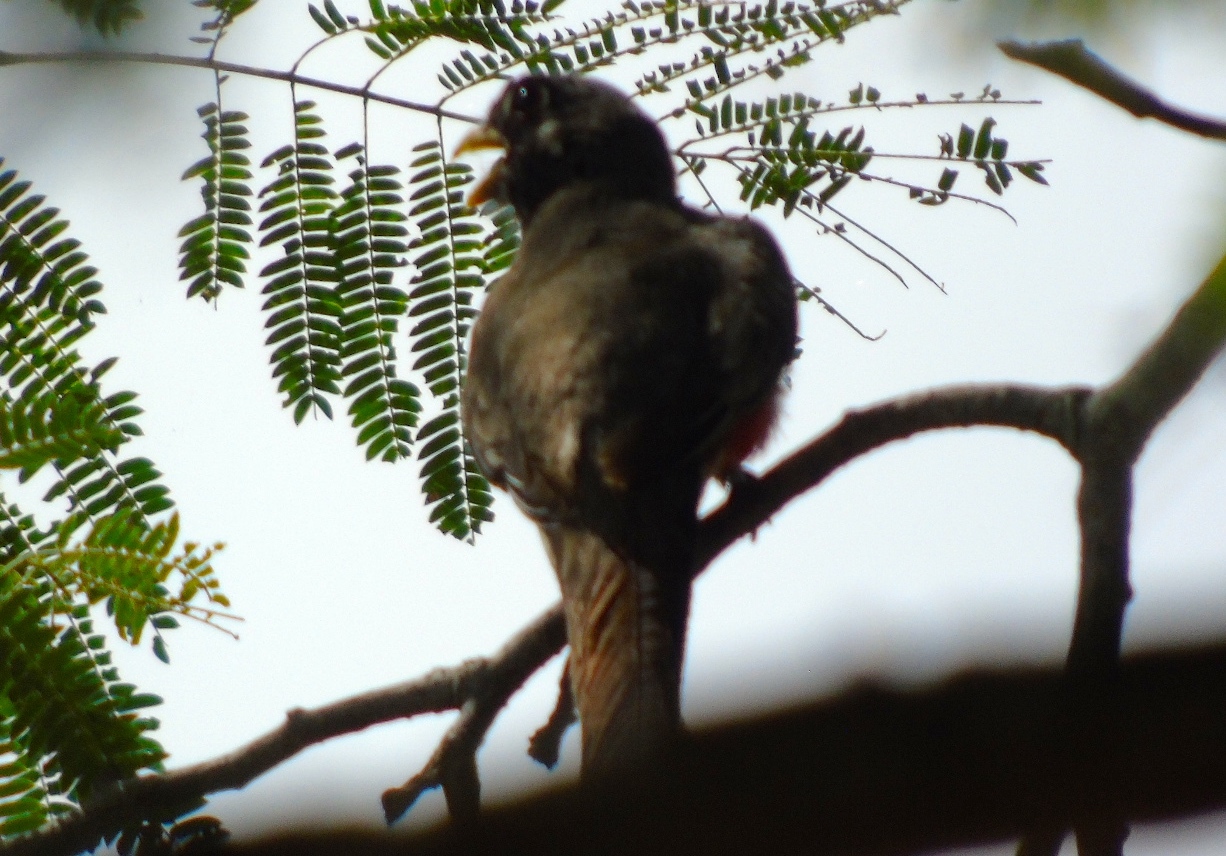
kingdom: Animalia
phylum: Chordata
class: Aves
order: Trogoniformes
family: Trogonidae
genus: Trogon
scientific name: Trogon elegans
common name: Elegant trogon
